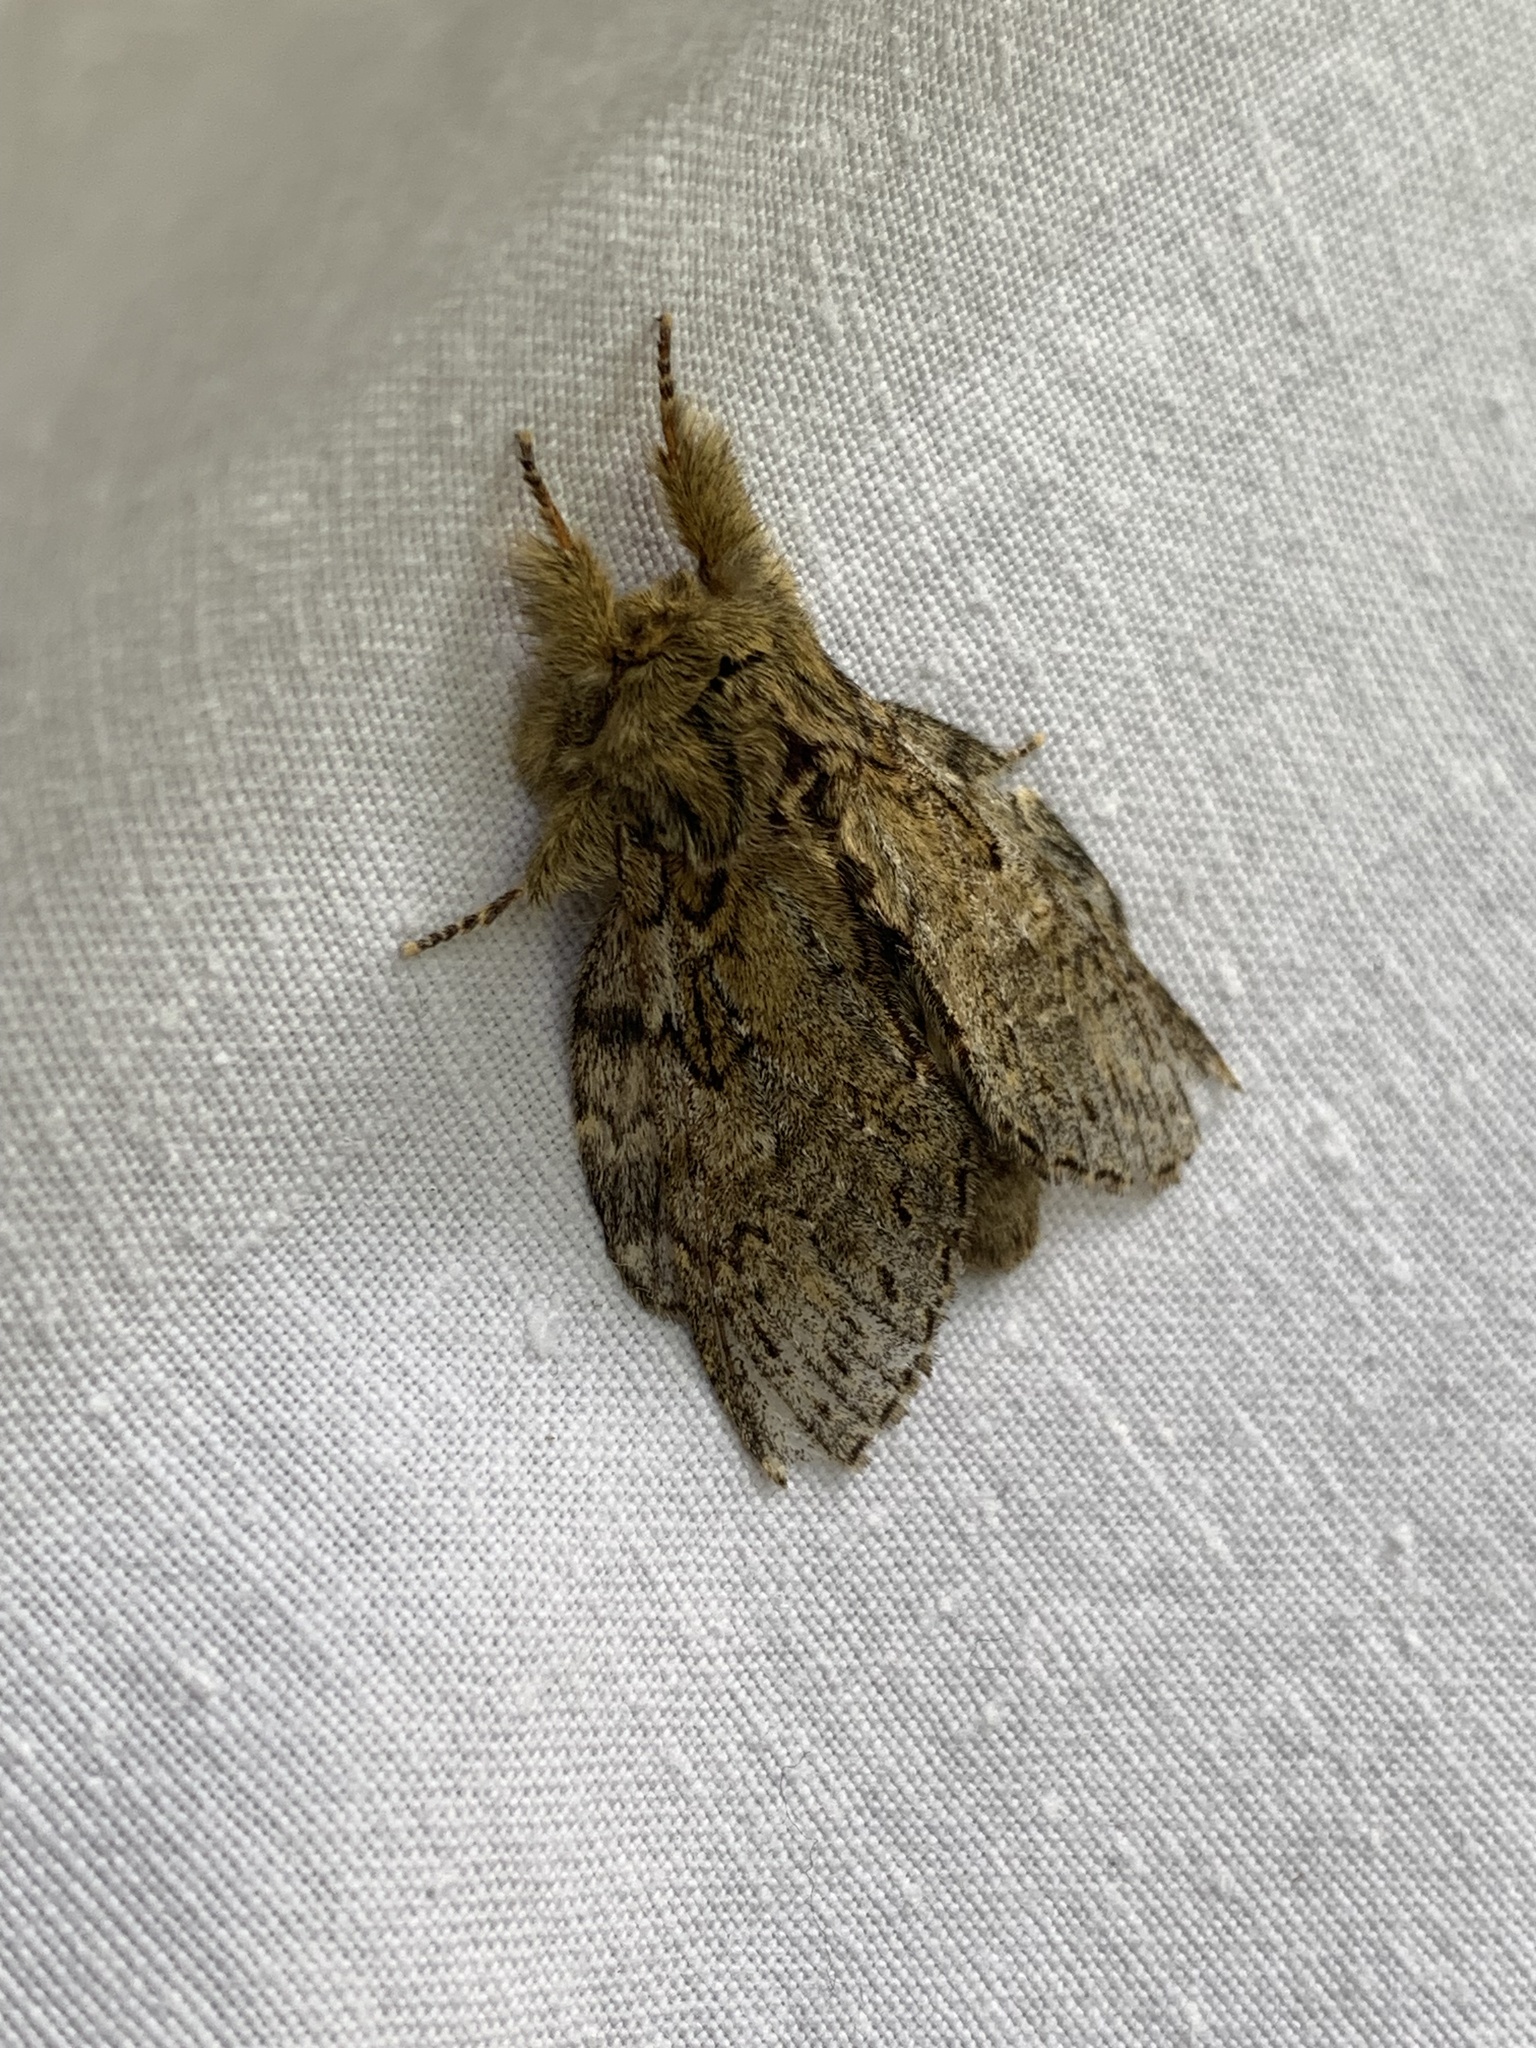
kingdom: Animalia
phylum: Arthropoda
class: Insecta
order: Lepidoptera
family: Notodontidae
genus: Peridea
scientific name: Peridea anceps
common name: Great prominent
